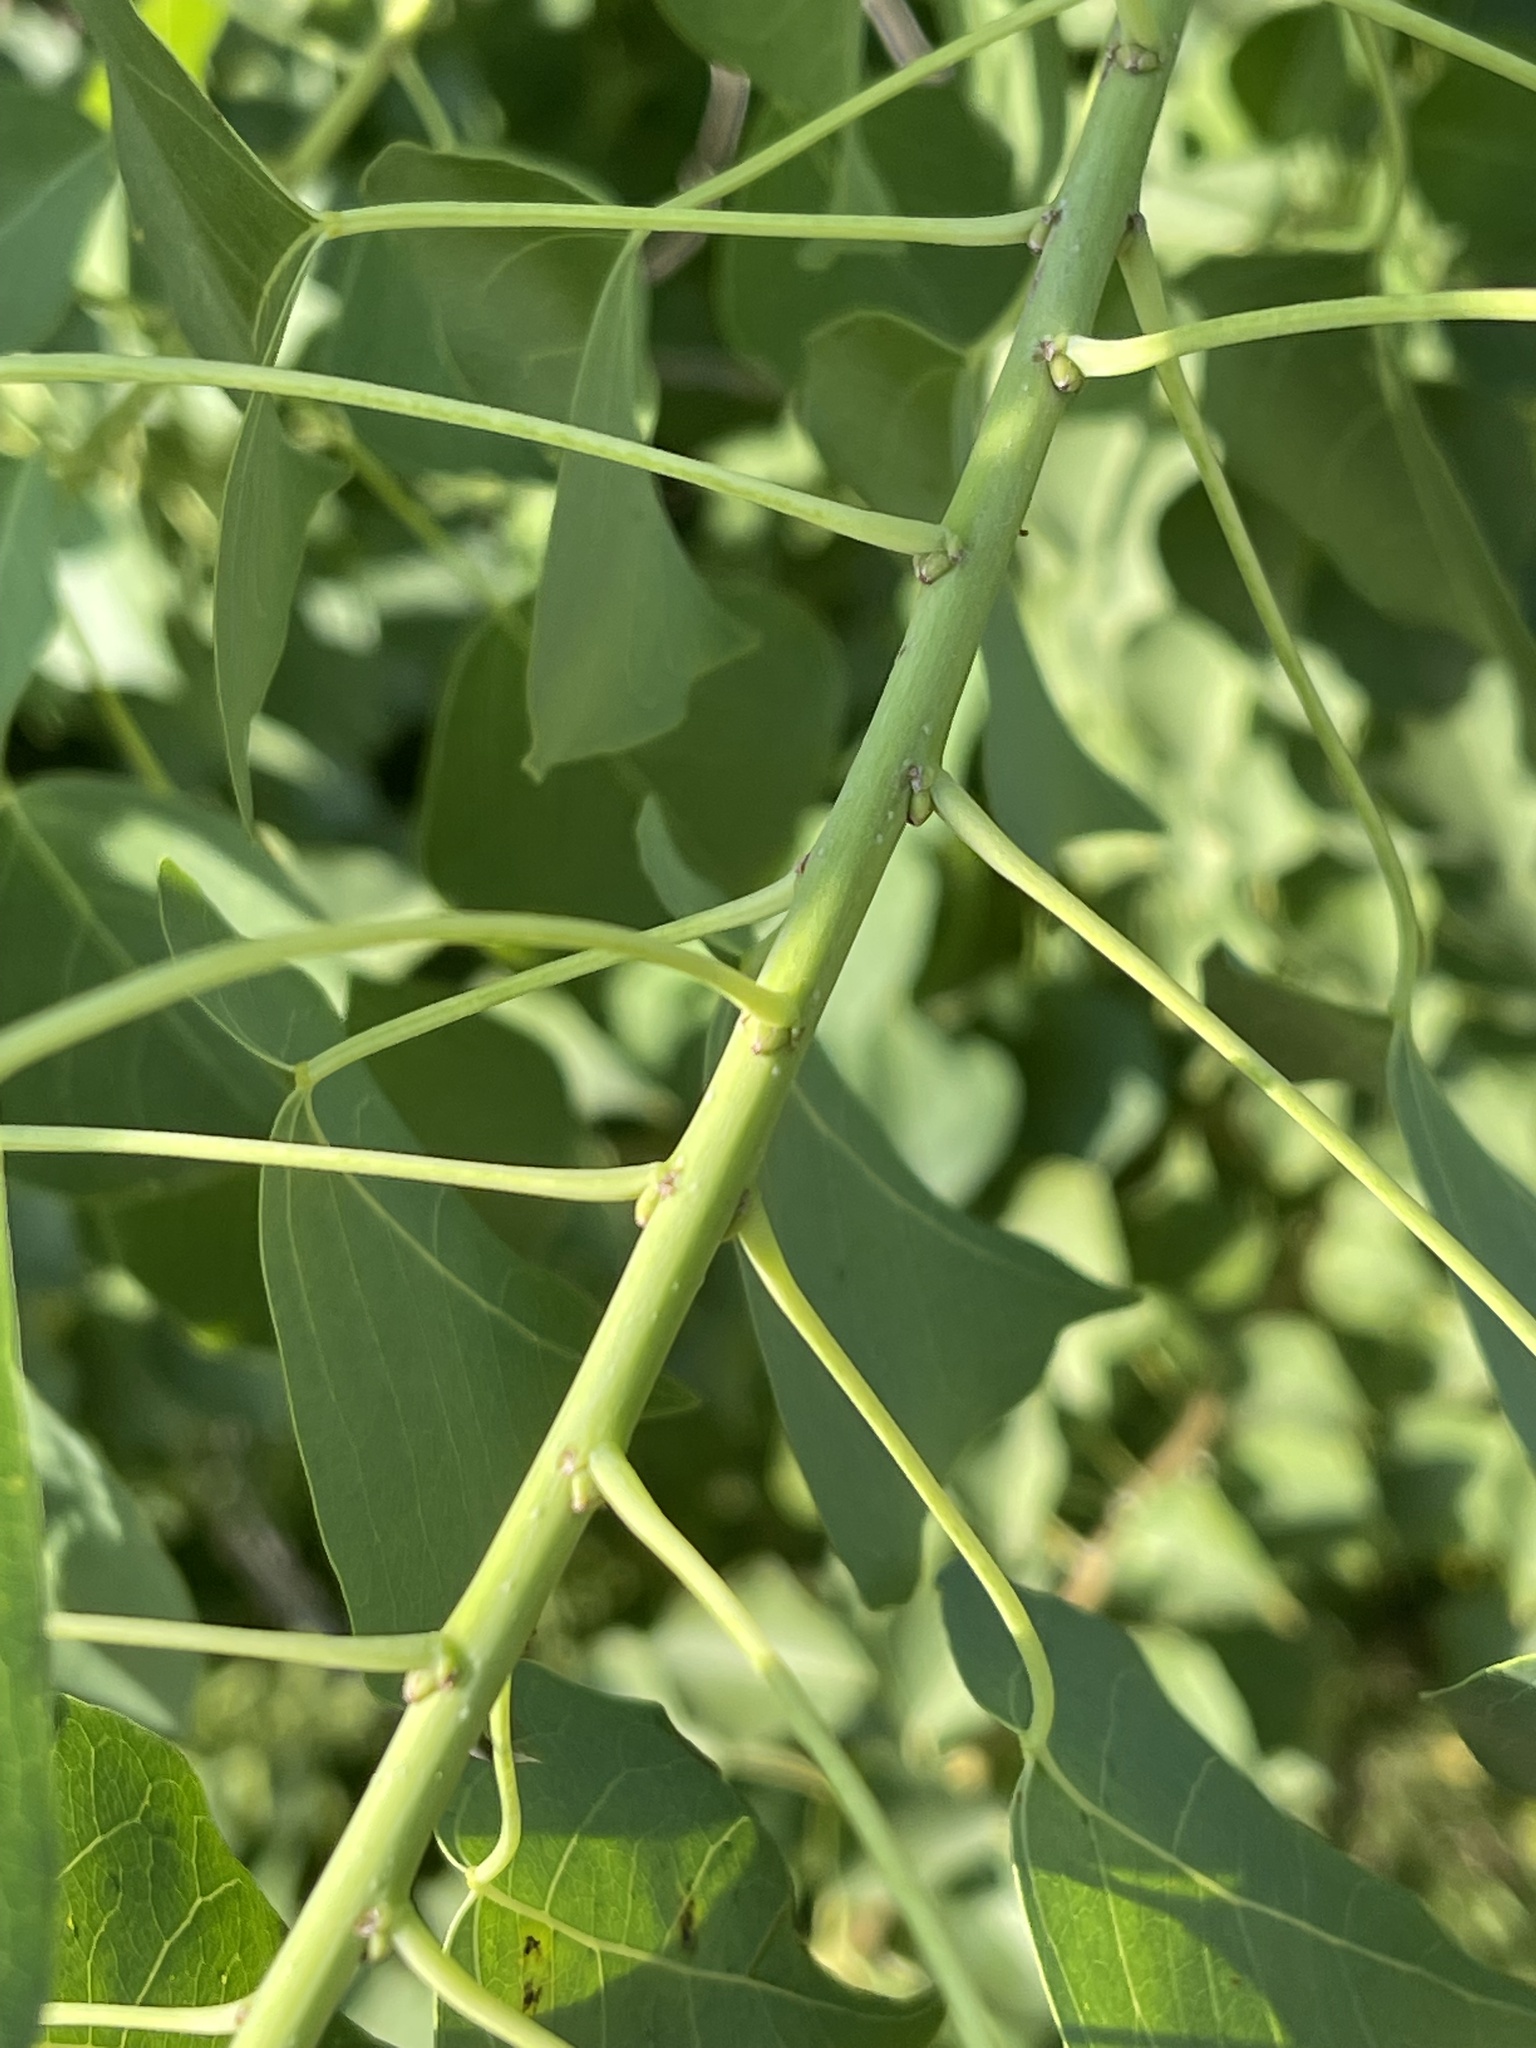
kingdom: Plantae
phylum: Tracheophyta
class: Magnoliopsida
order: Malpighiales
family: Euphorbiaceae
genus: Triadica
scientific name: Triadica sebifera
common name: Chinese tallow
